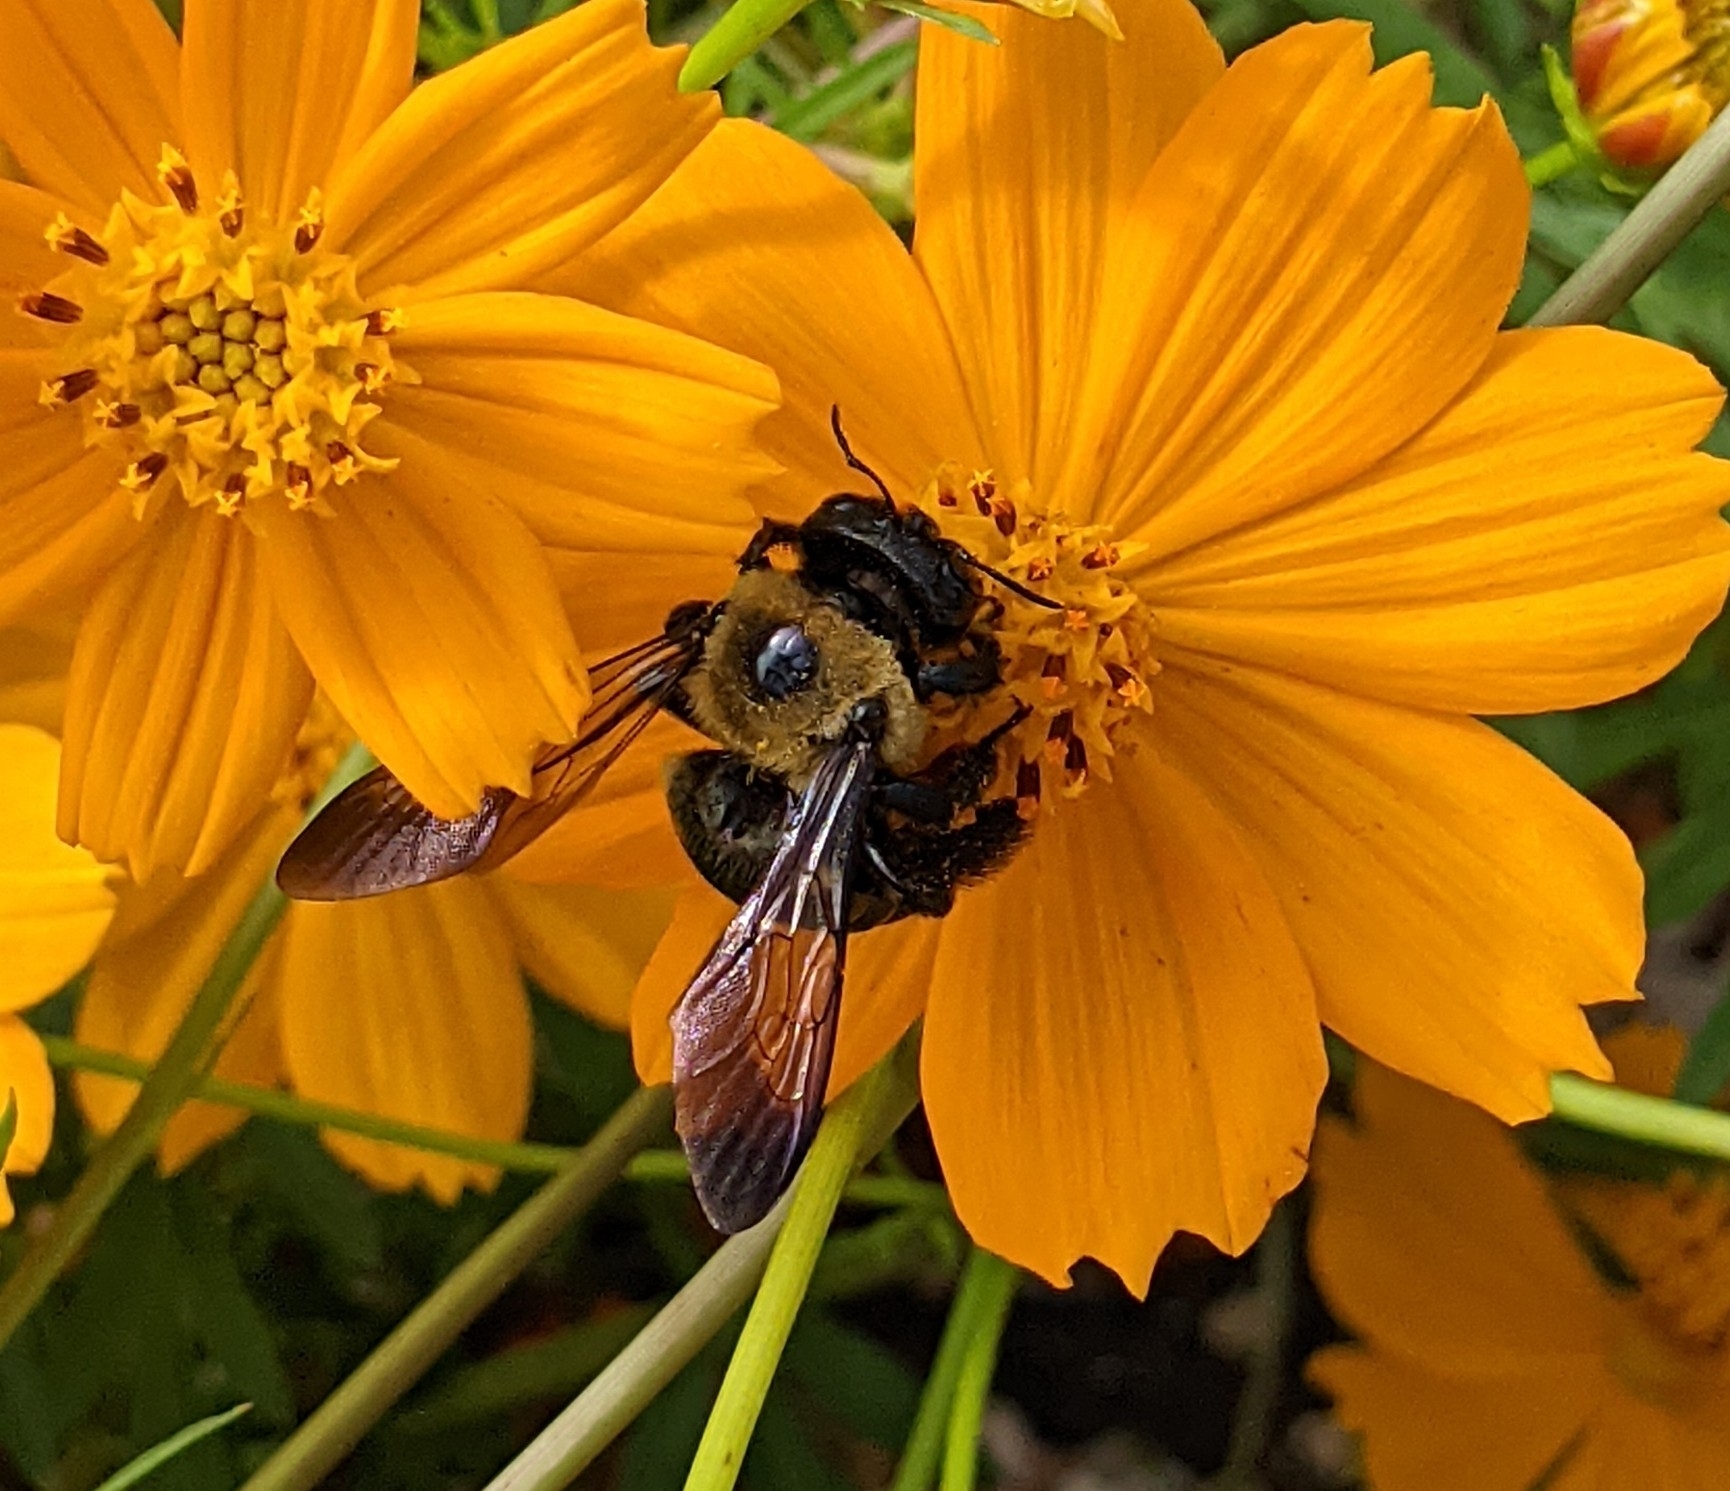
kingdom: Animalia
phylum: Arthropoda
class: Insecta
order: Hymenoptera
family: Apidae
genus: Xylocopa
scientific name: Xylocopa virginica
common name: Carpenter bee
